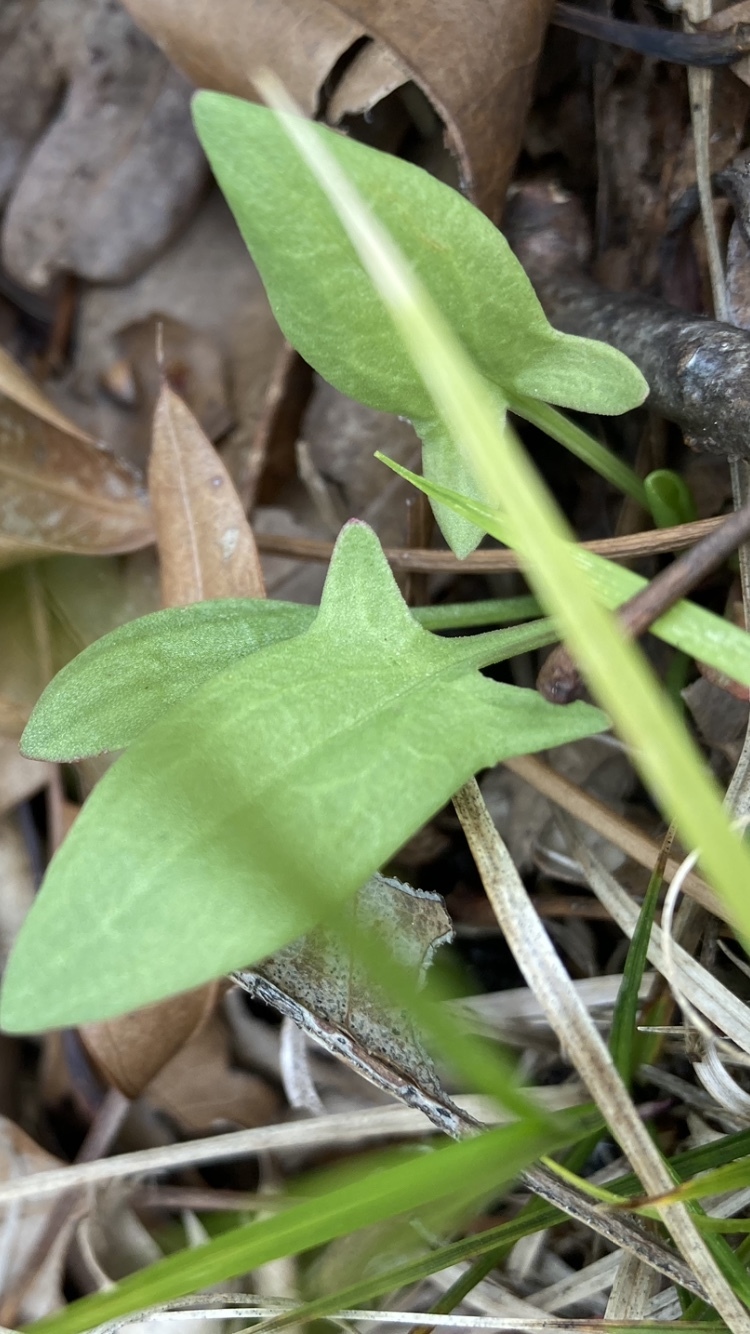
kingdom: Plantae
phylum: Tracheophyta
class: Magnoliopsida
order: Caryophyllales
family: Polygonaceae
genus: Rumex
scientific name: Rumex acetosella
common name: Common sheep sorrel
